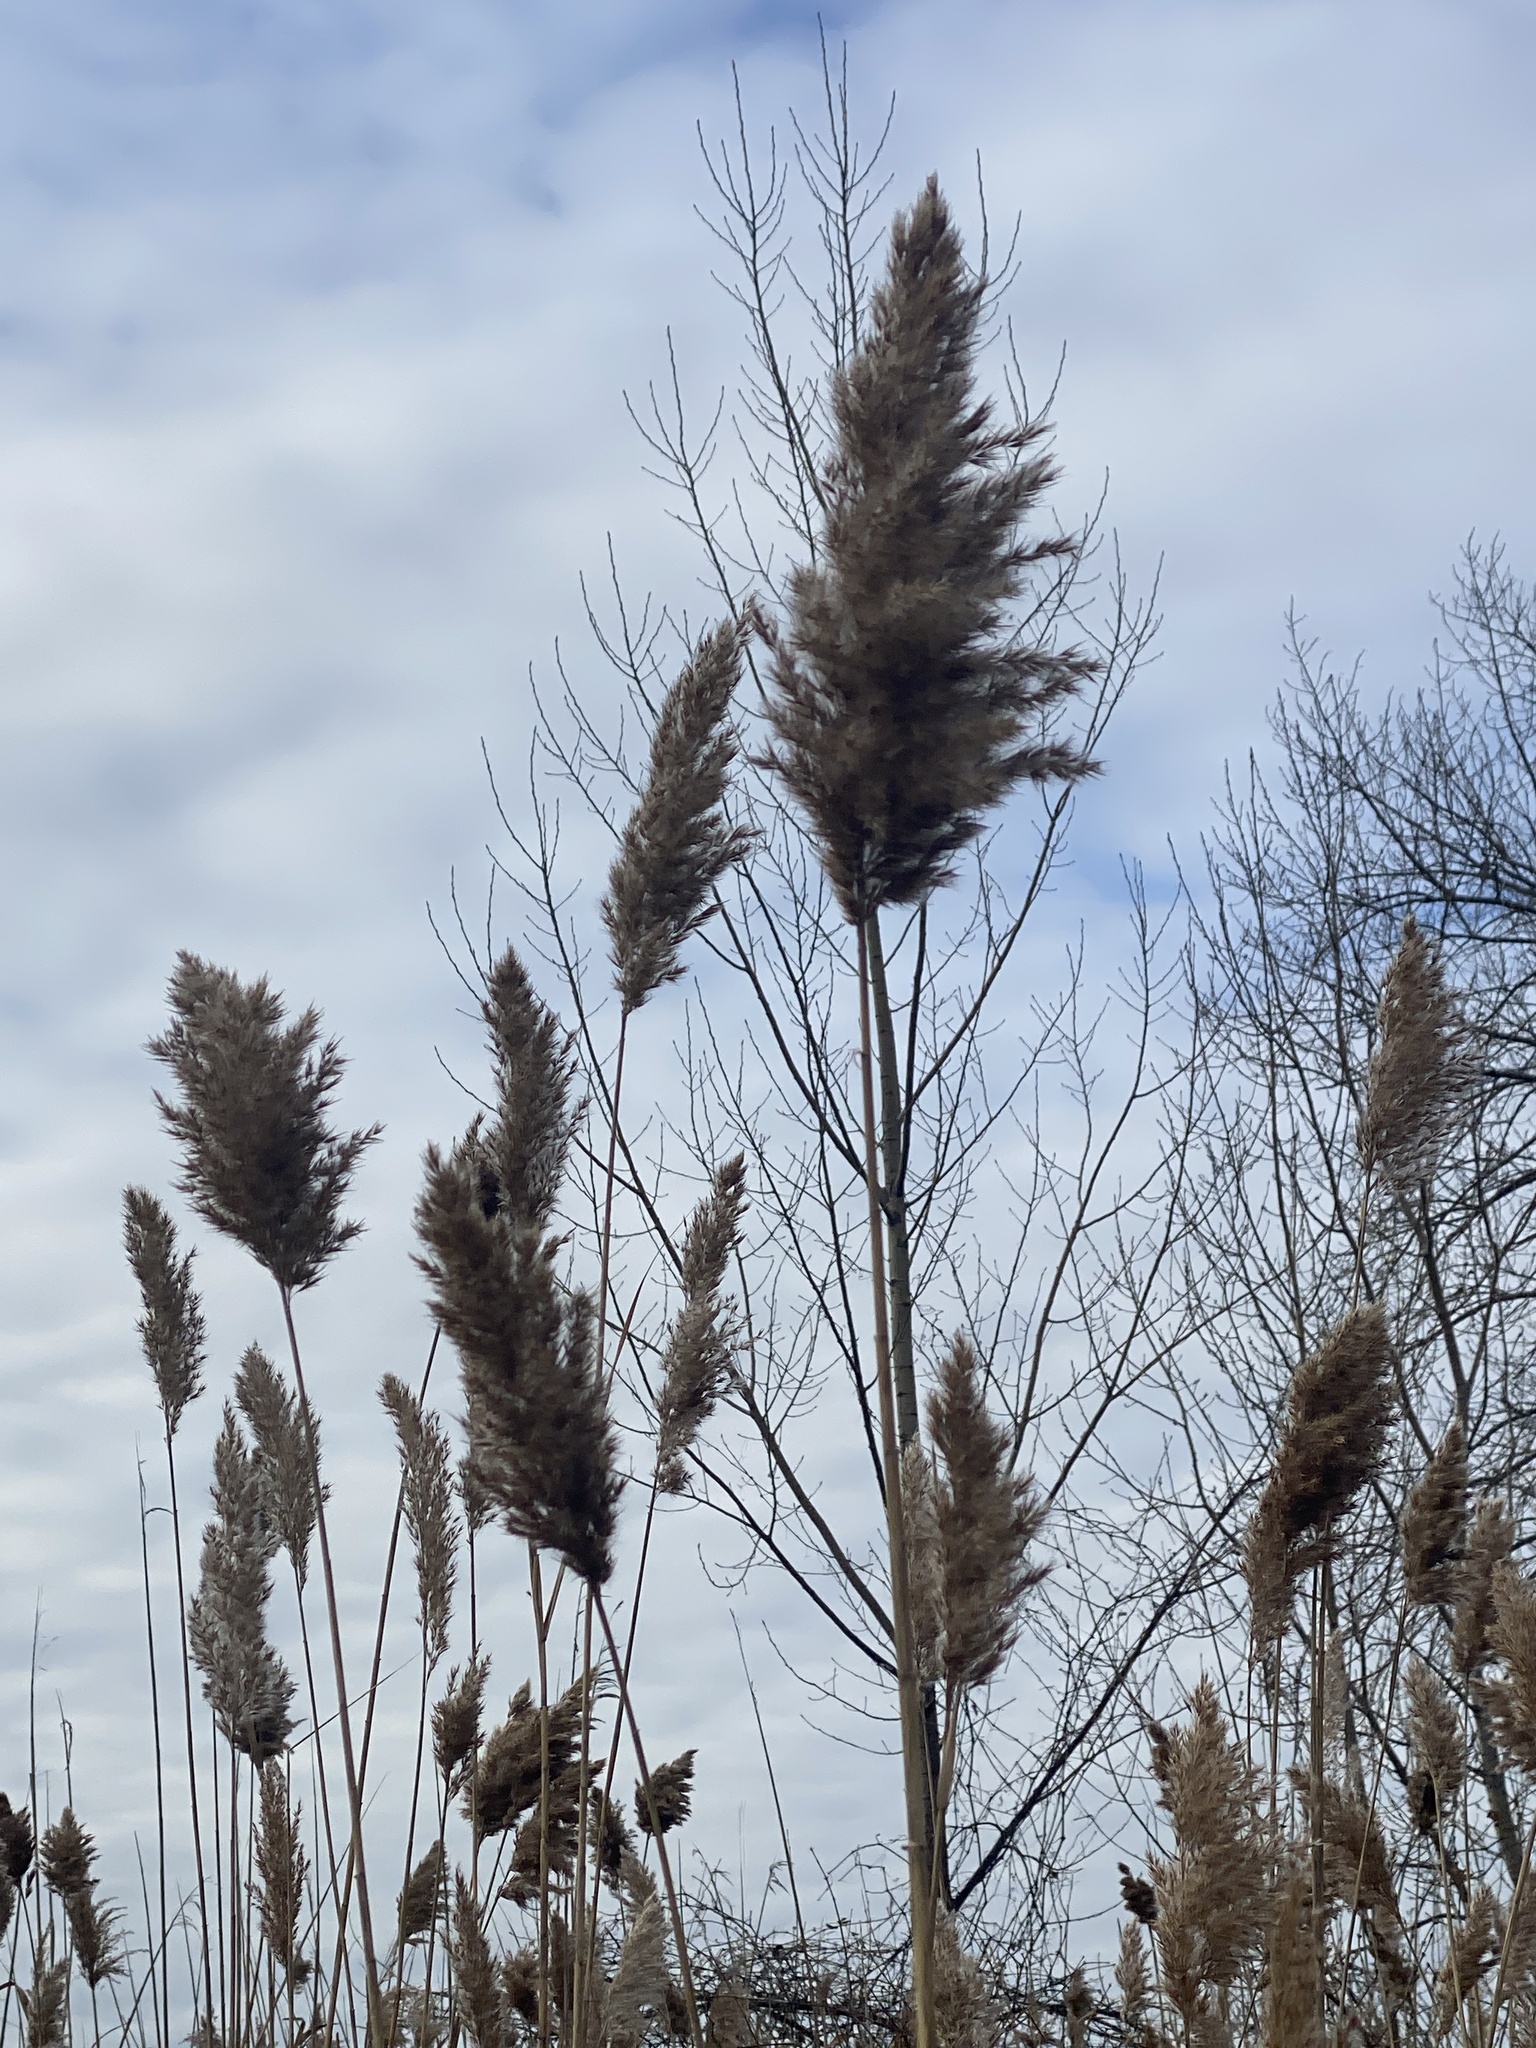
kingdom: Plantae
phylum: Tracheophyta
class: Liliopsida
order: Poales
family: Poaceae
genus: Phragmites
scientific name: Phragmites australis
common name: Common reed
